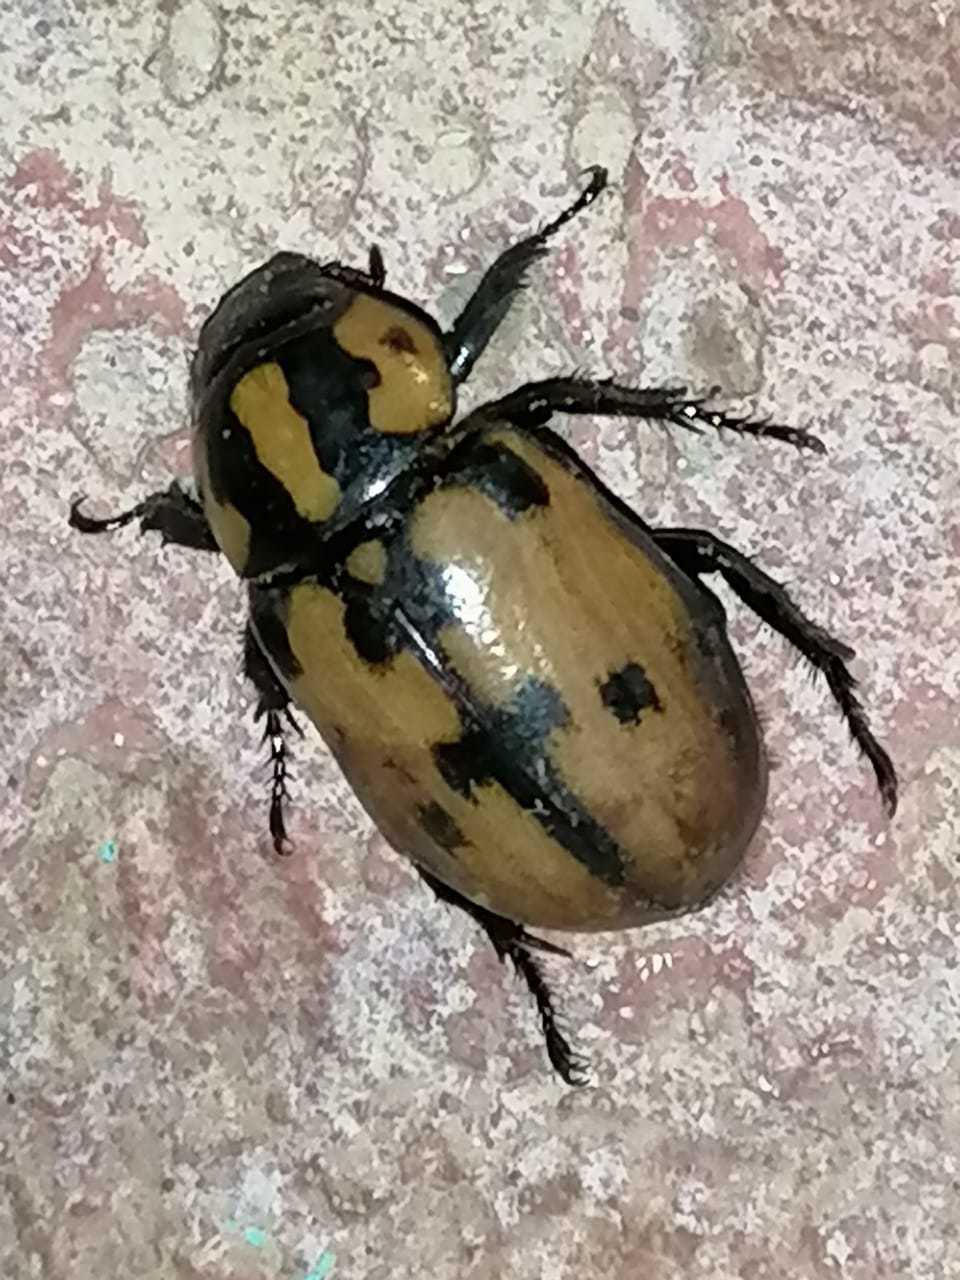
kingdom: Animalia
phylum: Arthropoda
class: Insecta
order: Coleoptera
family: Scarabaeidae
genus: Cyclocephala
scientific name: Cyclocephala mafaffa
